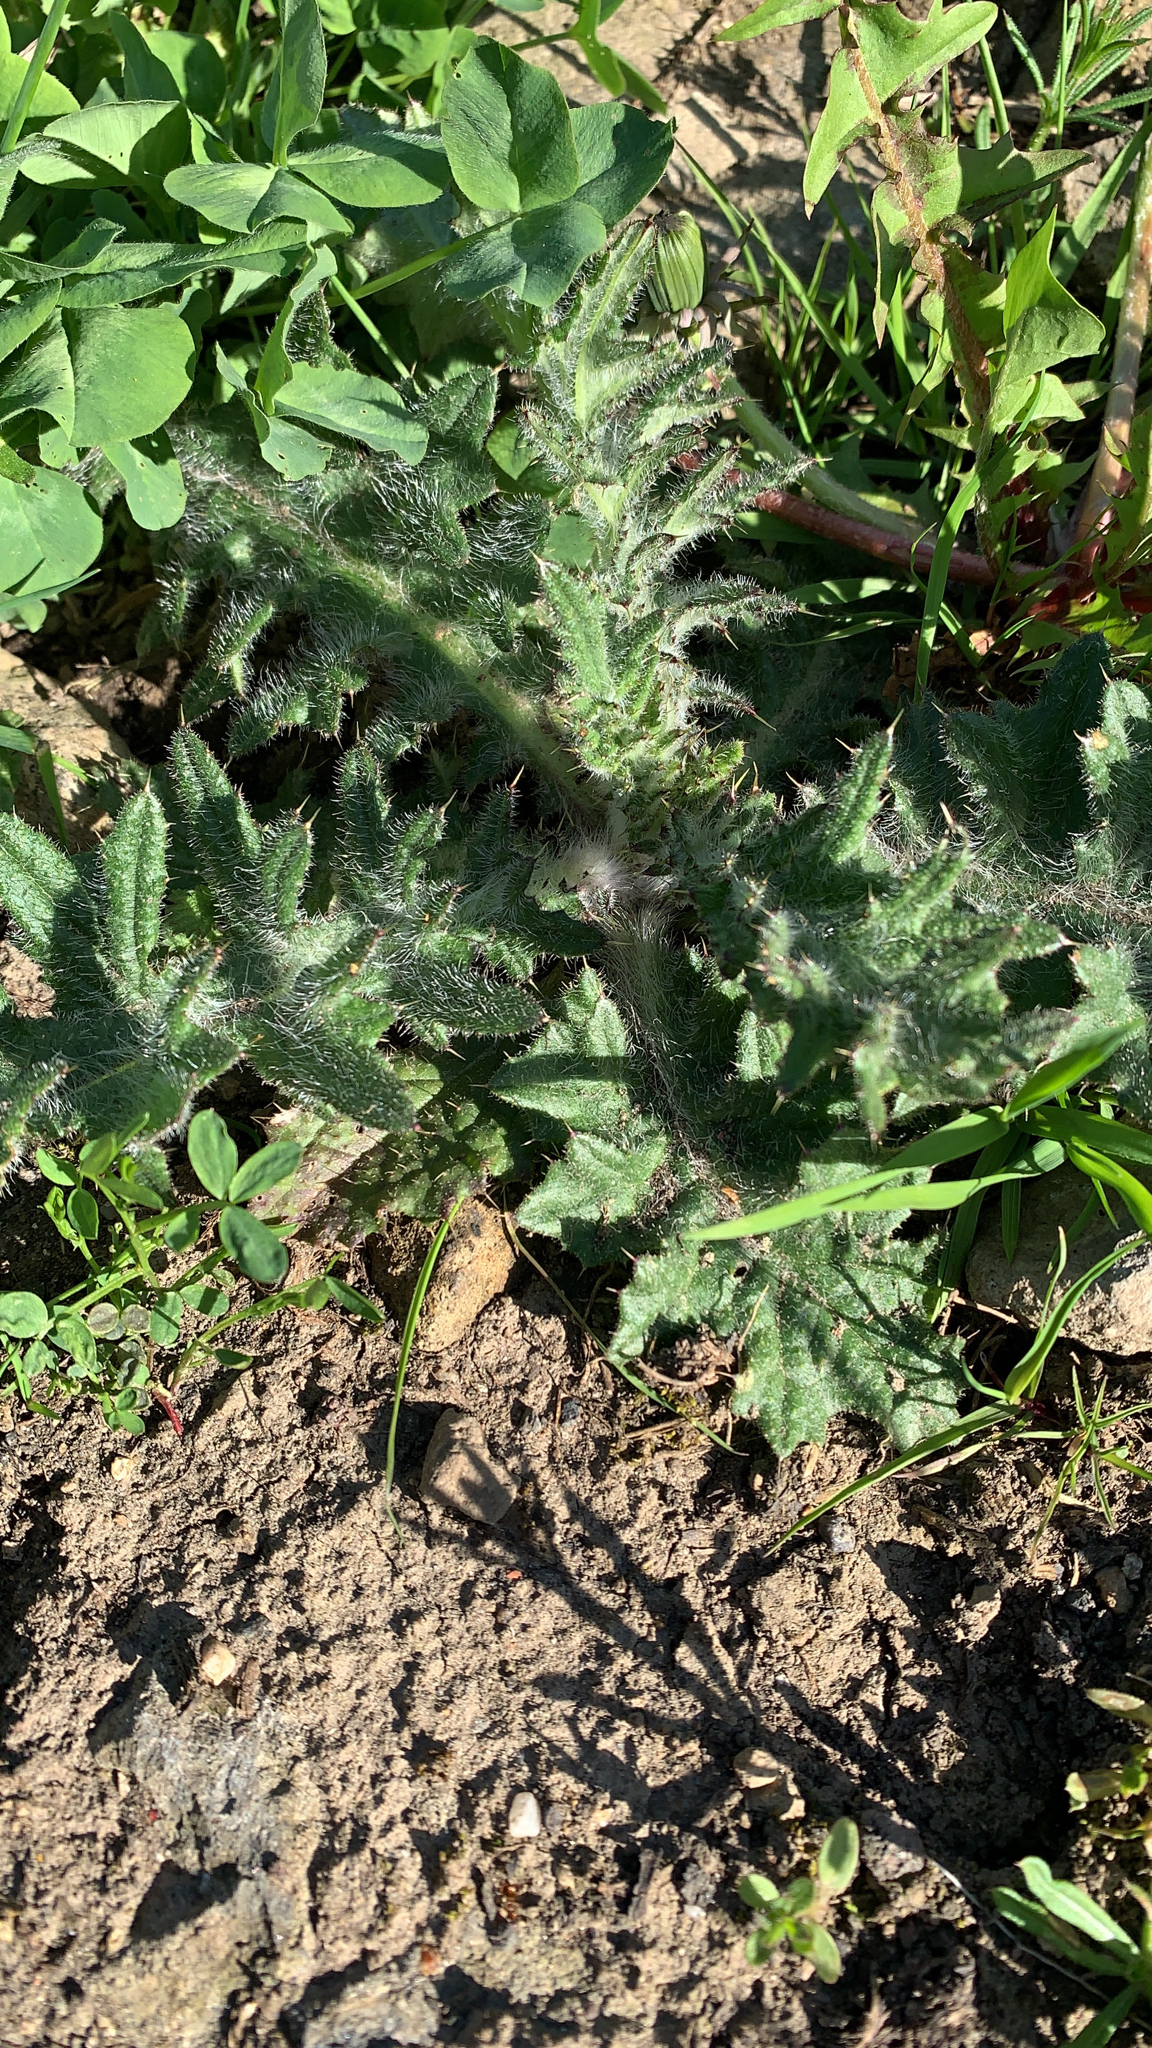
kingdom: Plantae
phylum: Tracheophyta
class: Magnoliopsida
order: Asterales
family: Asteraceae
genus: Cirsium
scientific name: Cirsium vulgare
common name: Bull thistle
